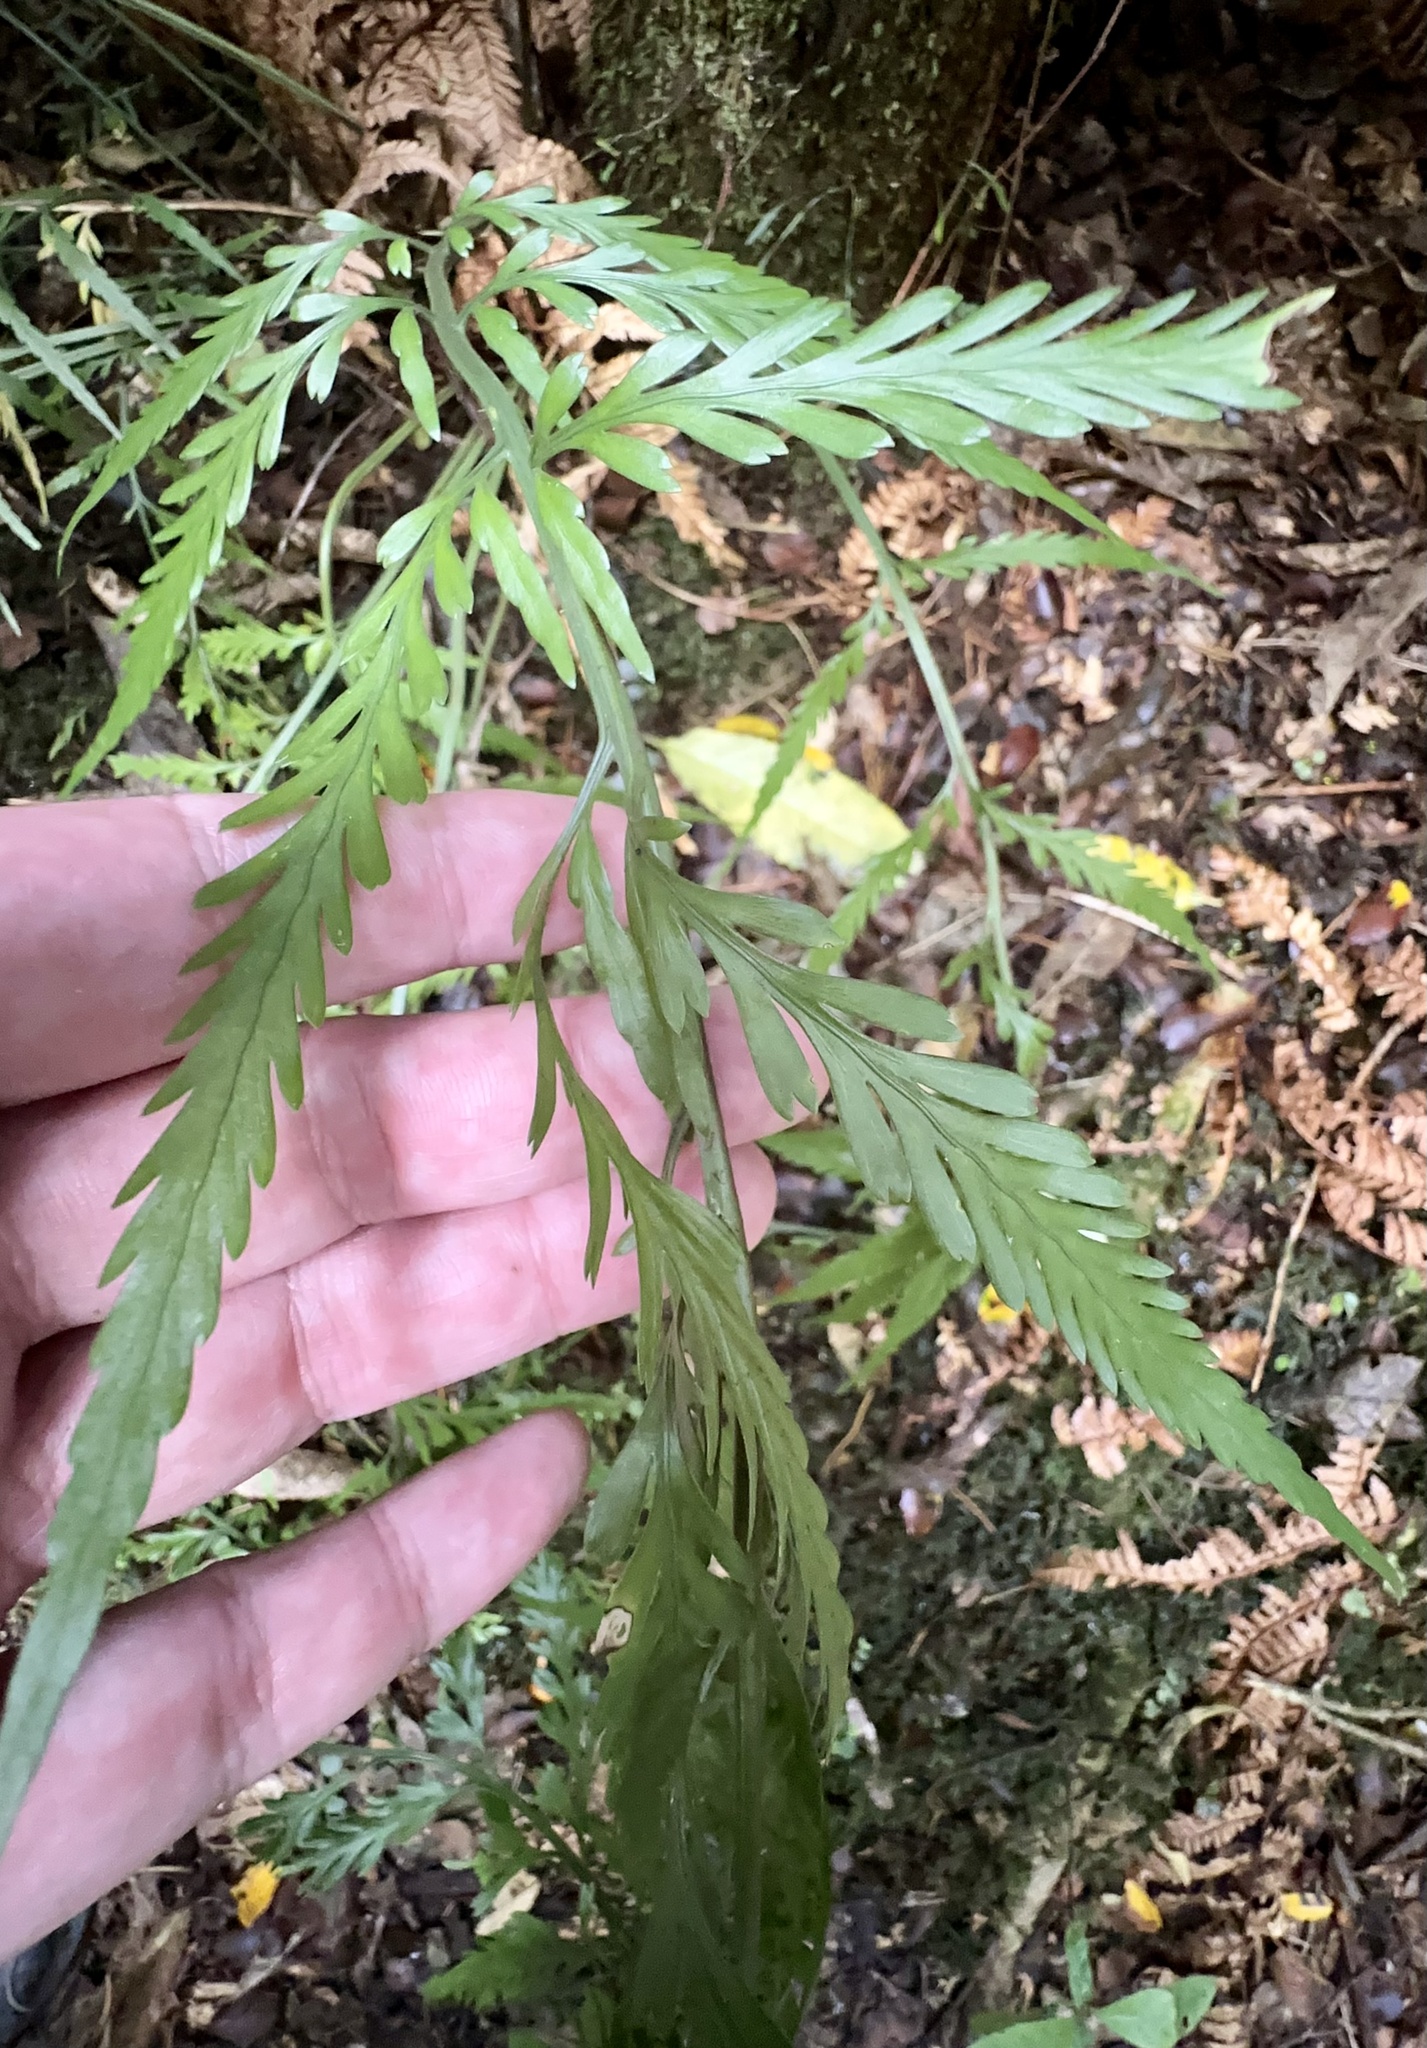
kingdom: Plantae
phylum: Tracheophyta
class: Polypodiopsida
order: Polypodiales
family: Aspleniaceae
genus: Asplenium
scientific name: Asplenium flaccidum
